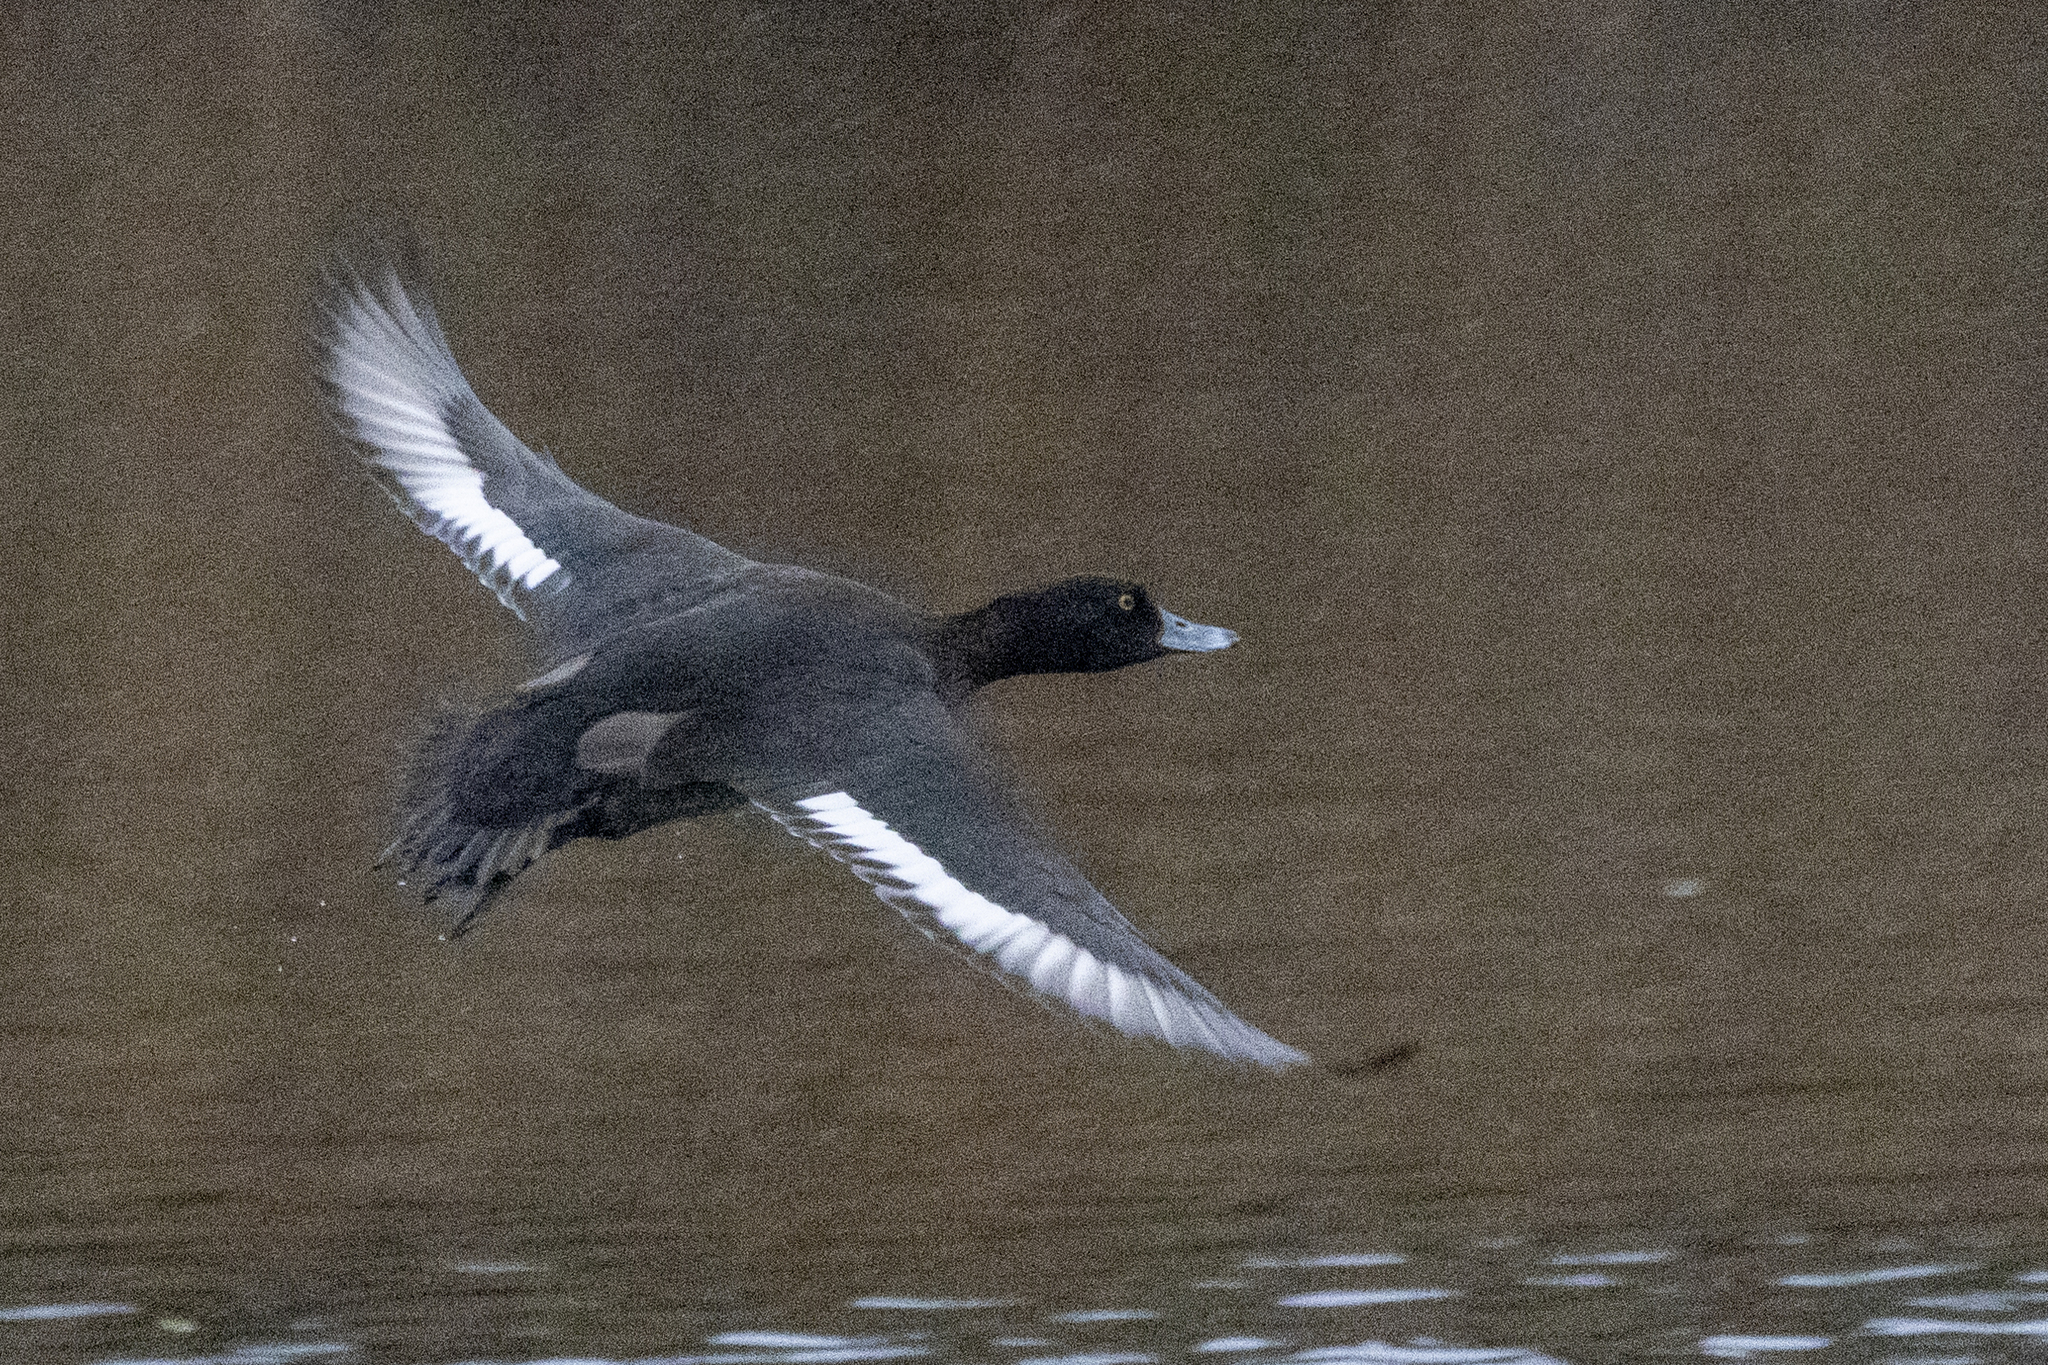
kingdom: Animalia
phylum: Chordata
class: Aves
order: Anseriformes
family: Anatidae
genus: Aythya
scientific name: Aythya fuligula
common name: Tufted duck
